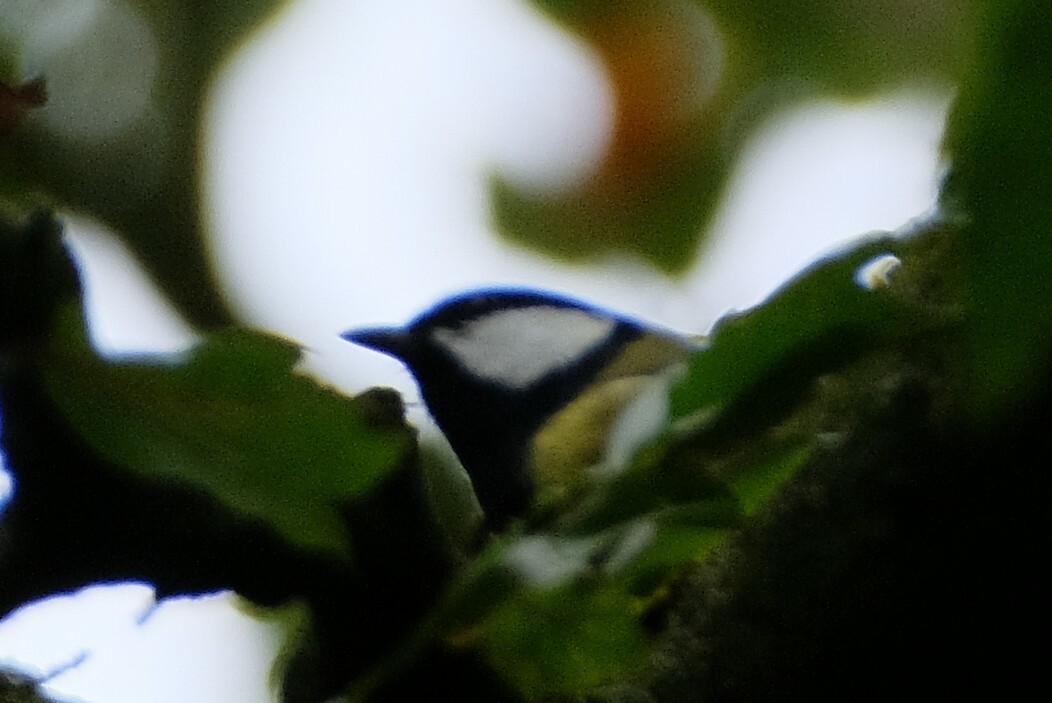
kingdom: Animalia
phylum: Chordata
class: Aves
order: Passeriformes
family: Paridae
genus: Parus
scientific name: Parus major
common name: Great tit
